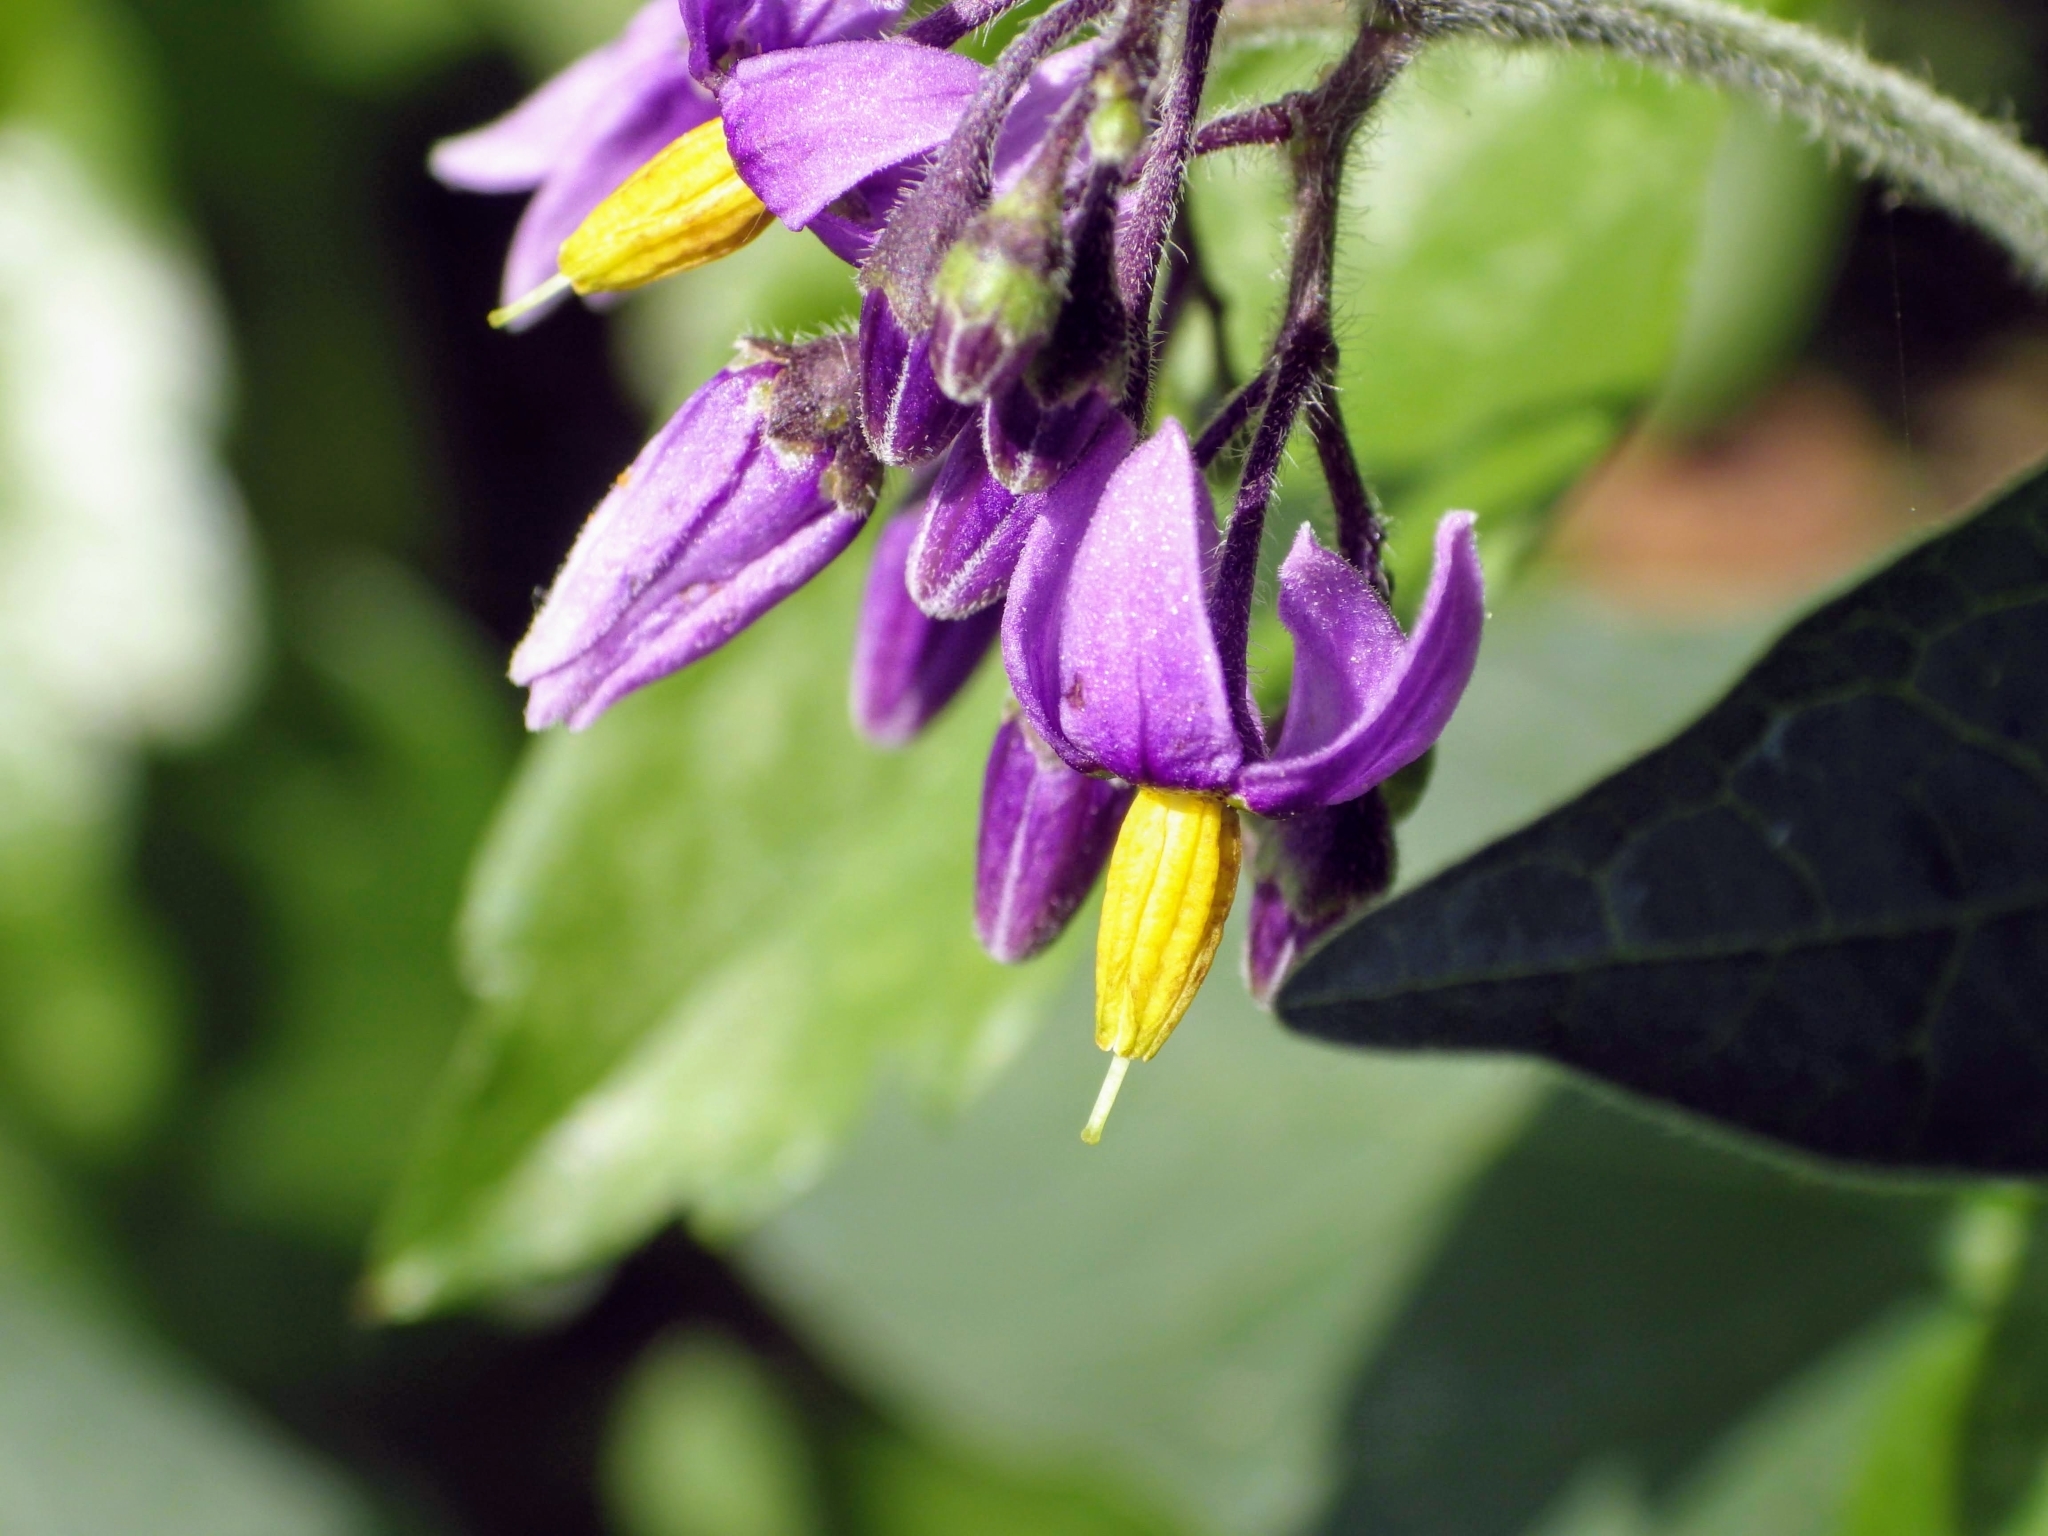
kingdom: Plantae
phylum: Tracheophyta
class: Magnoliopsida
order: Solanales
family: Solanaceae
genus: Solanum
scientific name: Solanum dulcamara
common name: Climbing nightshade
